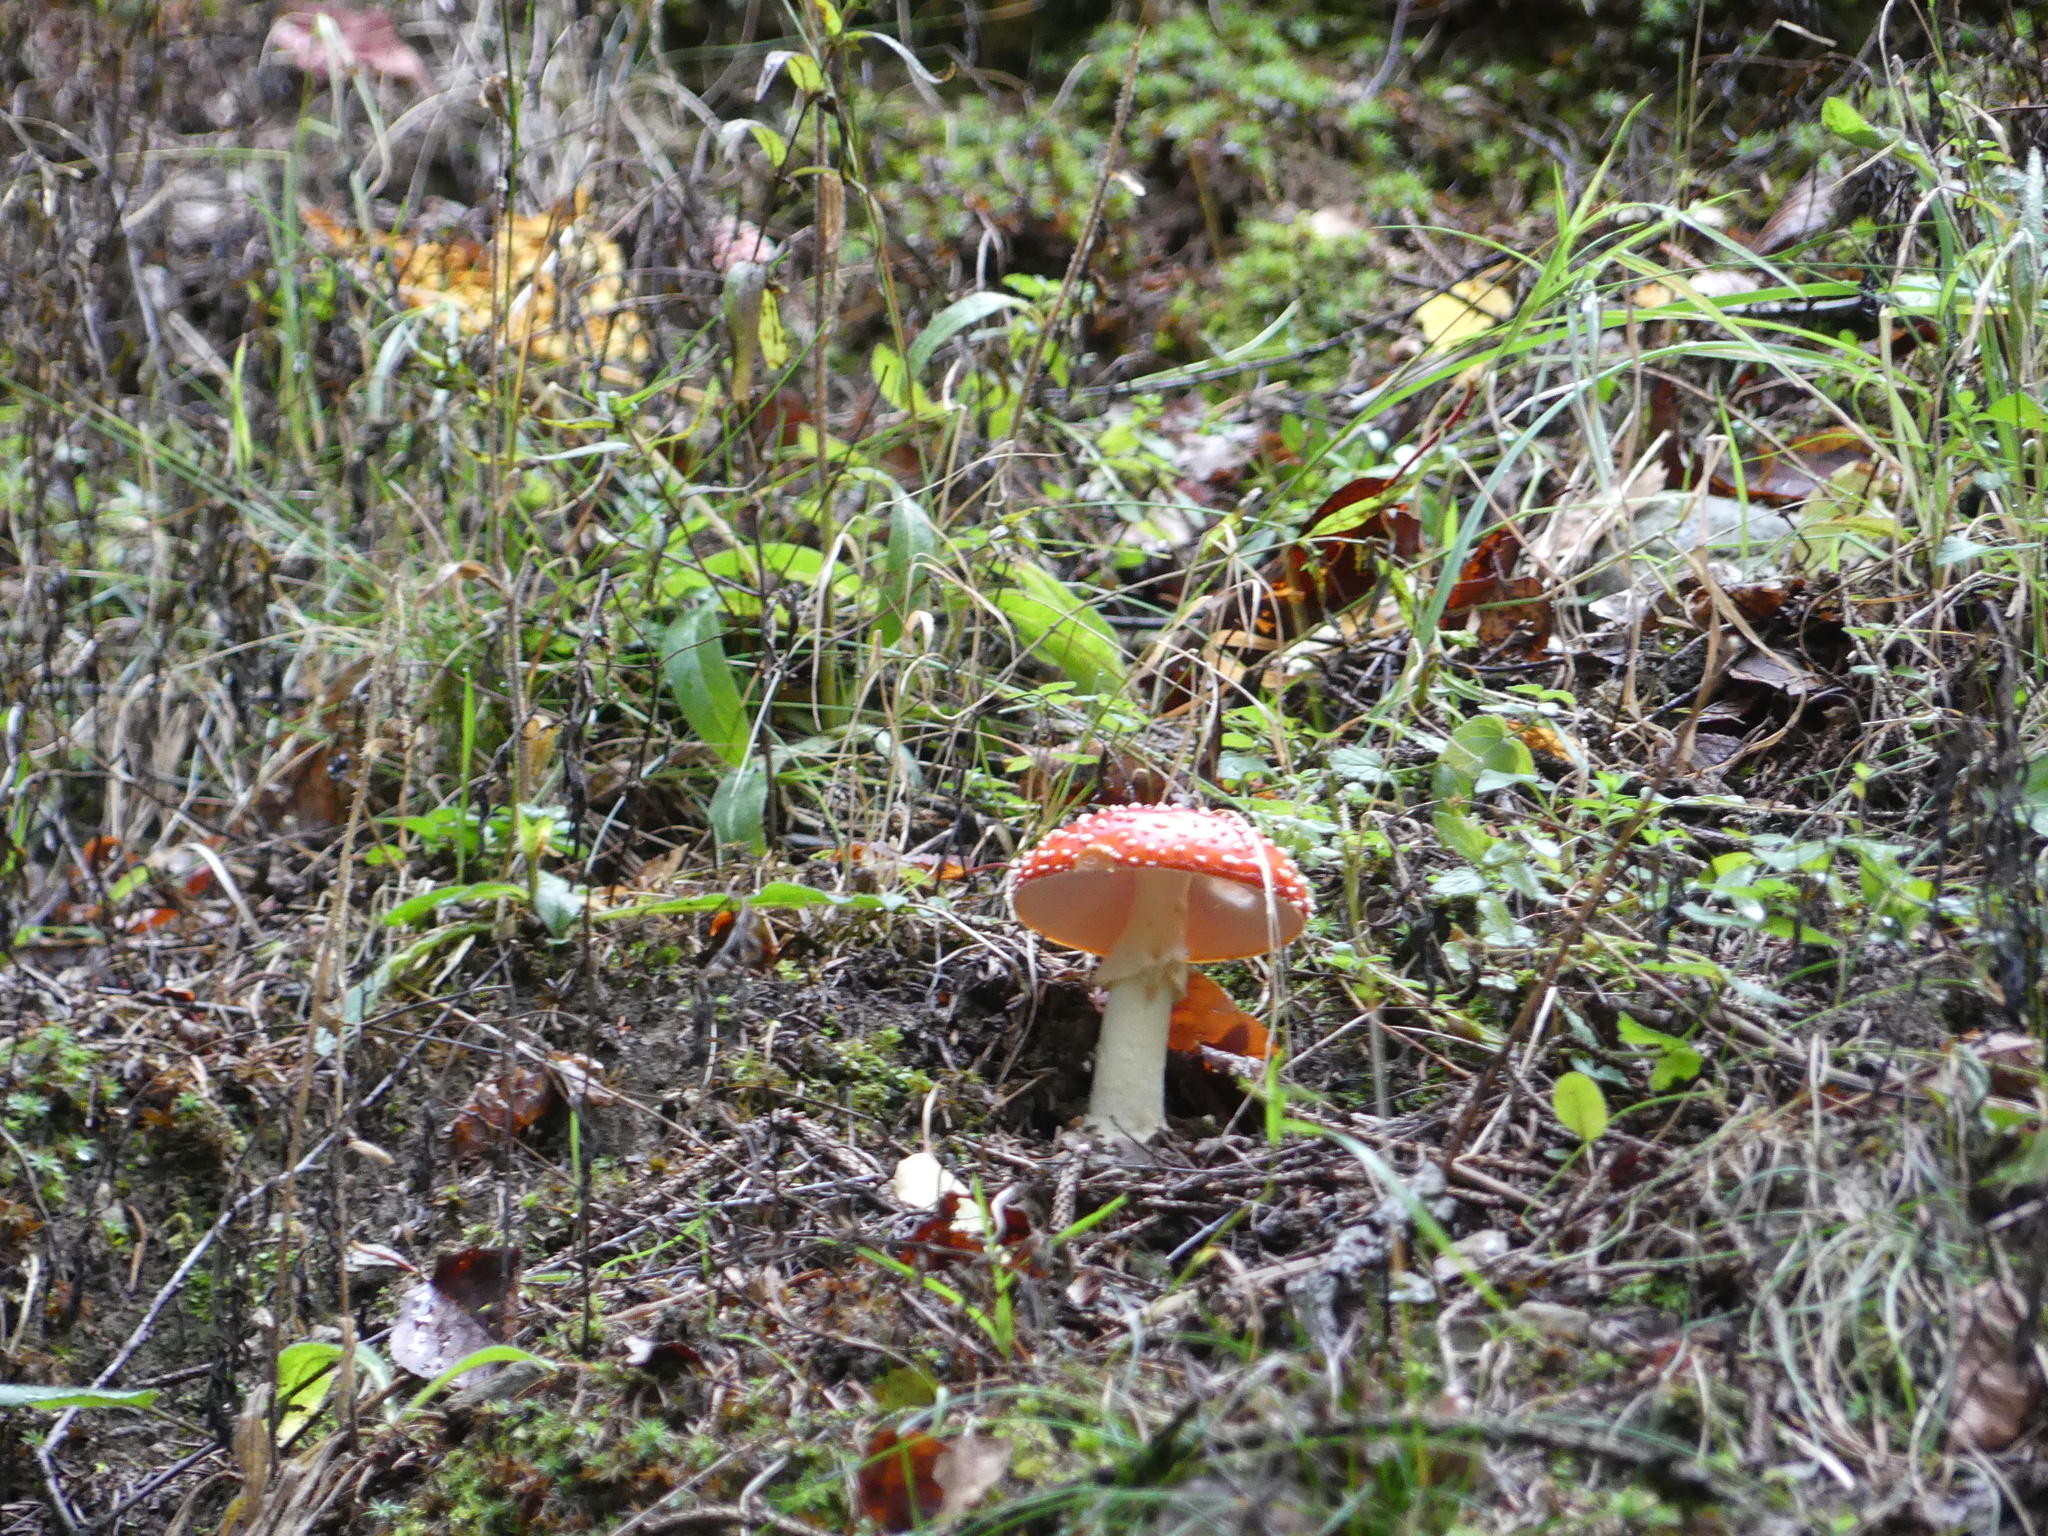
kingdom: Fungi
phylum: Basidiomycota
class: Agaricomycetes
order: Agaricales
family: Amanitaceae
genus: Amanita
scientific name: Amanita muscaria
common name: Fly agaric
